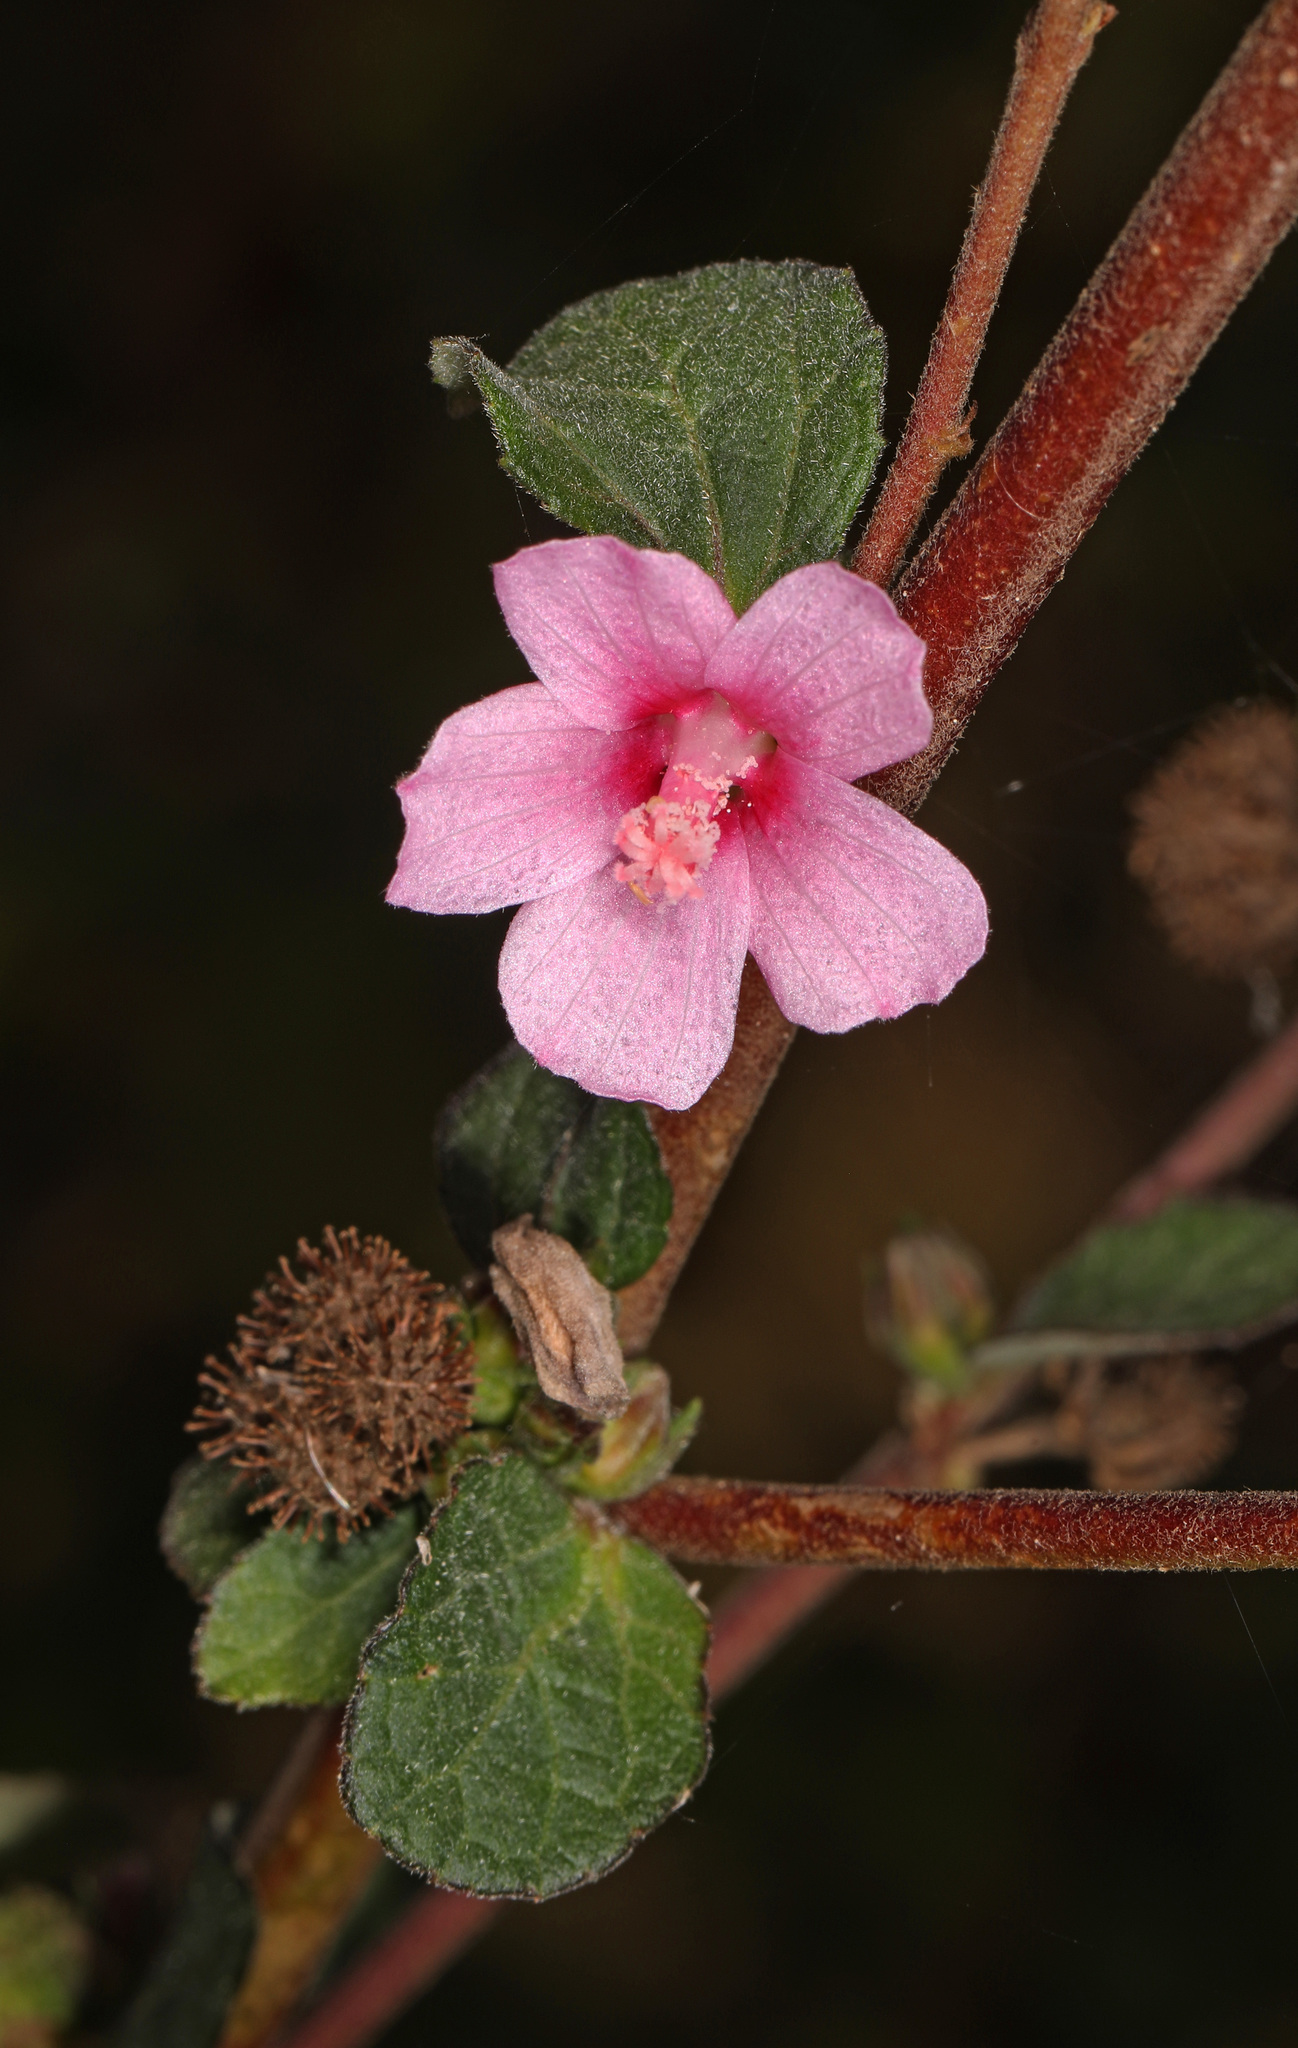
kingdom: Plantae
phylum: Tracheophyta
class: Magnoliopsida
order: Malvales
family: Malvaceae
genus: Urena
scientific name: Urena lobata
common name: Caesarweed
